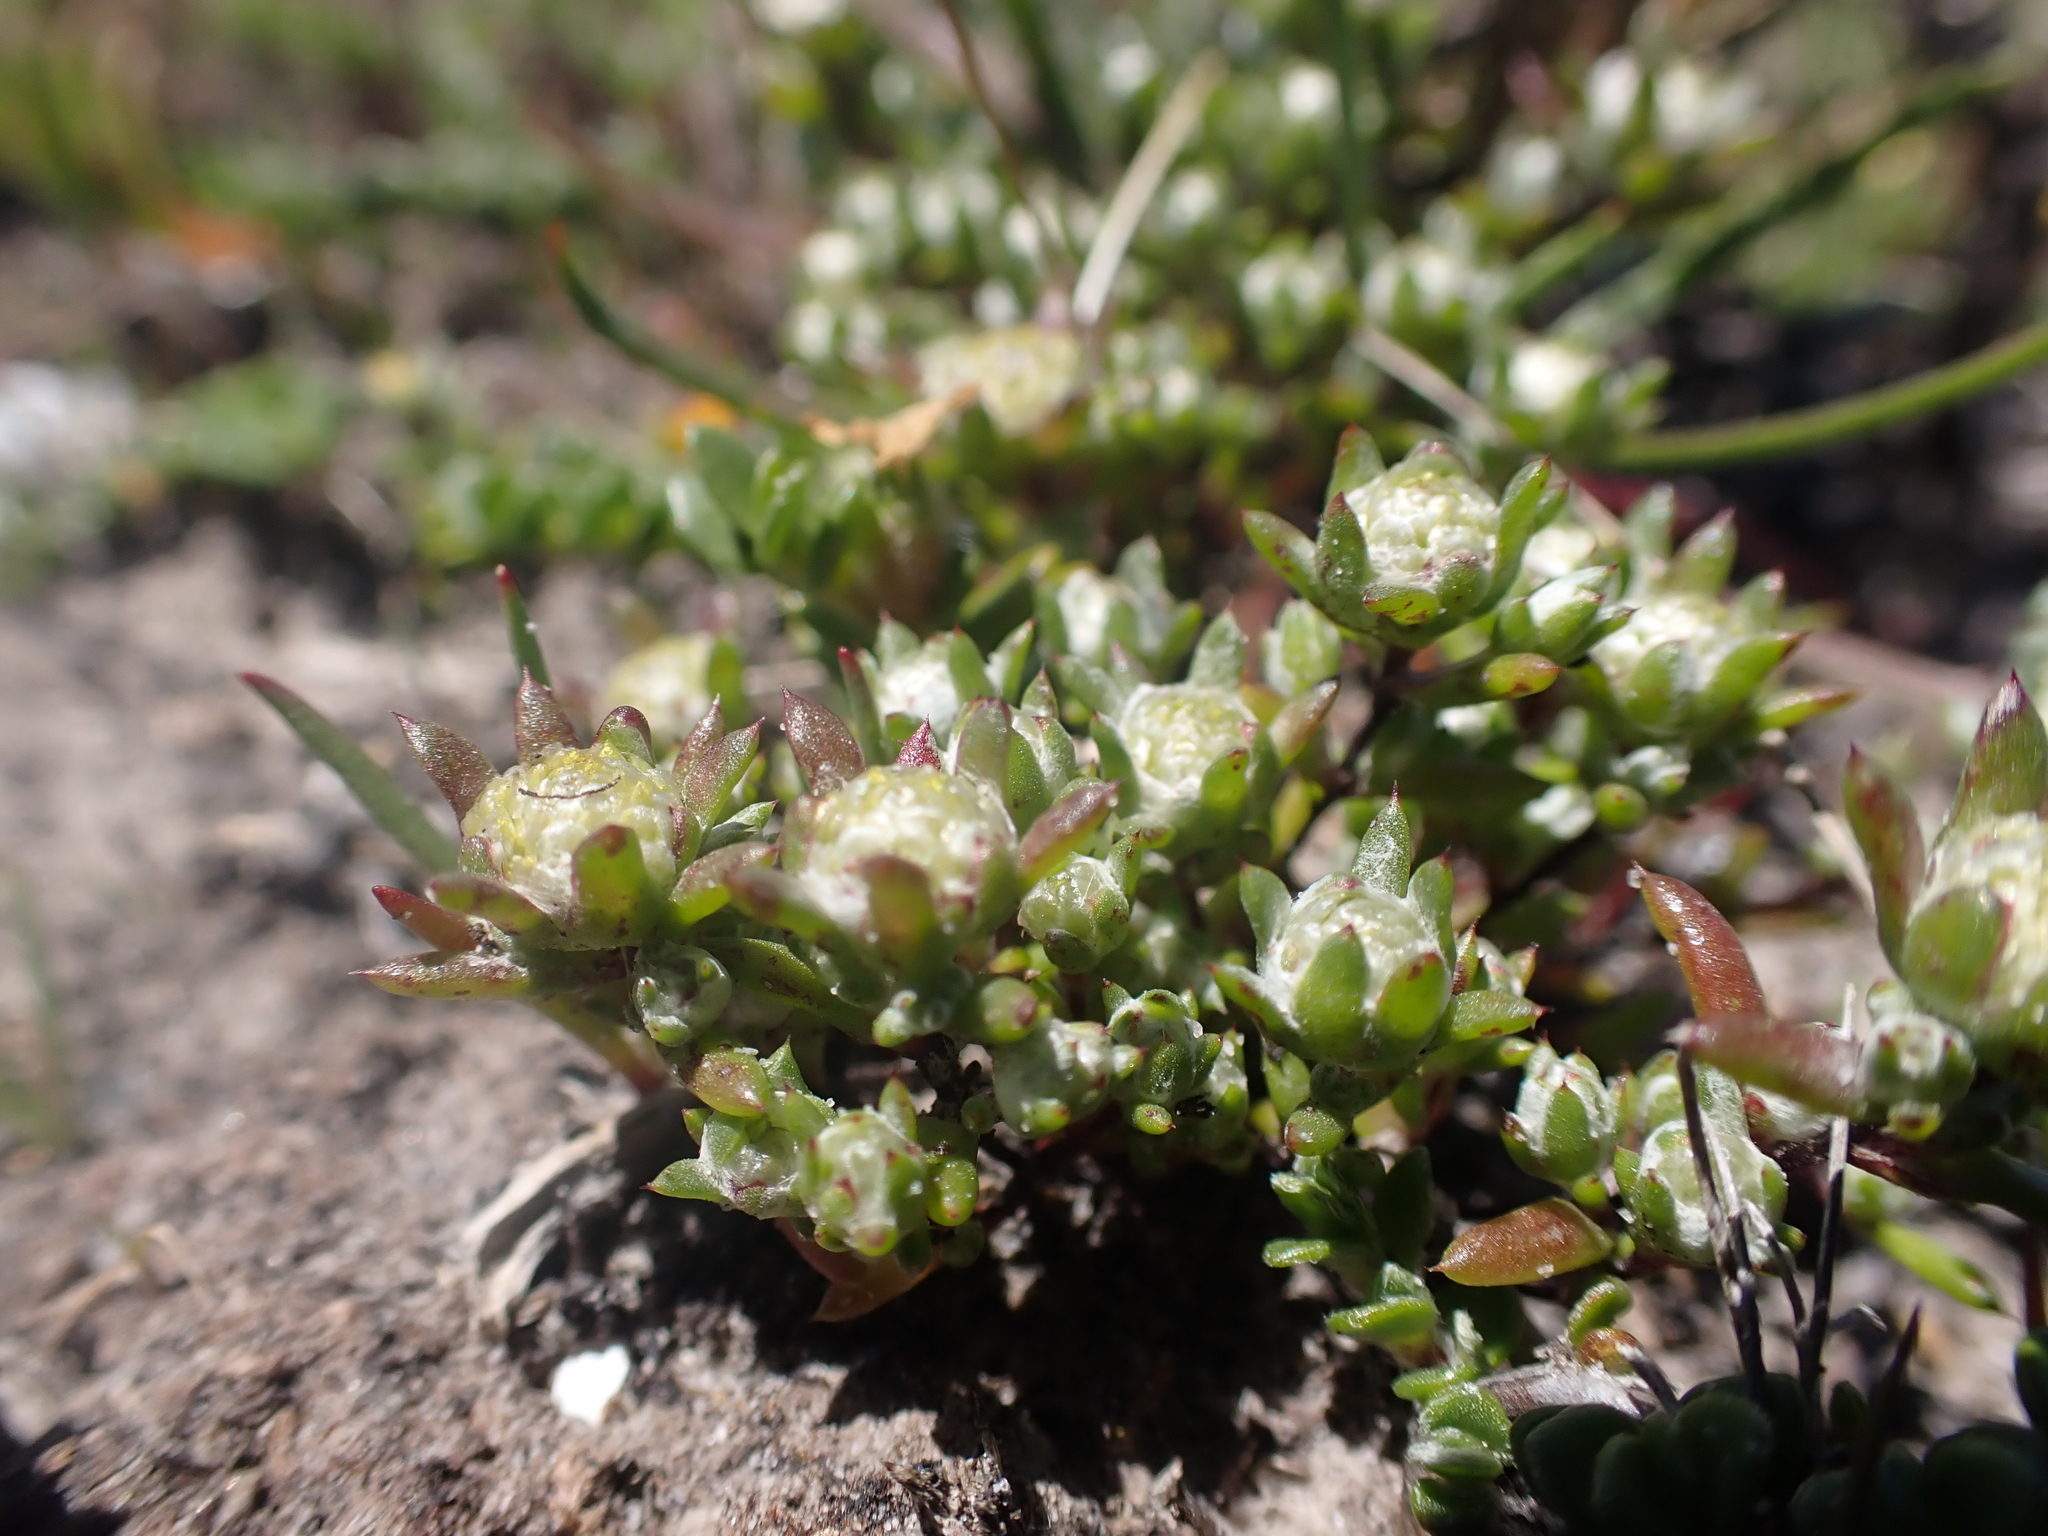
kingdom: Plantae
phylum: Tracheophyta
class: Magnoliopsida
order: Asterales
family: Asteraceae
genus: Angianthus
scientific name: Angianthus preissianus
